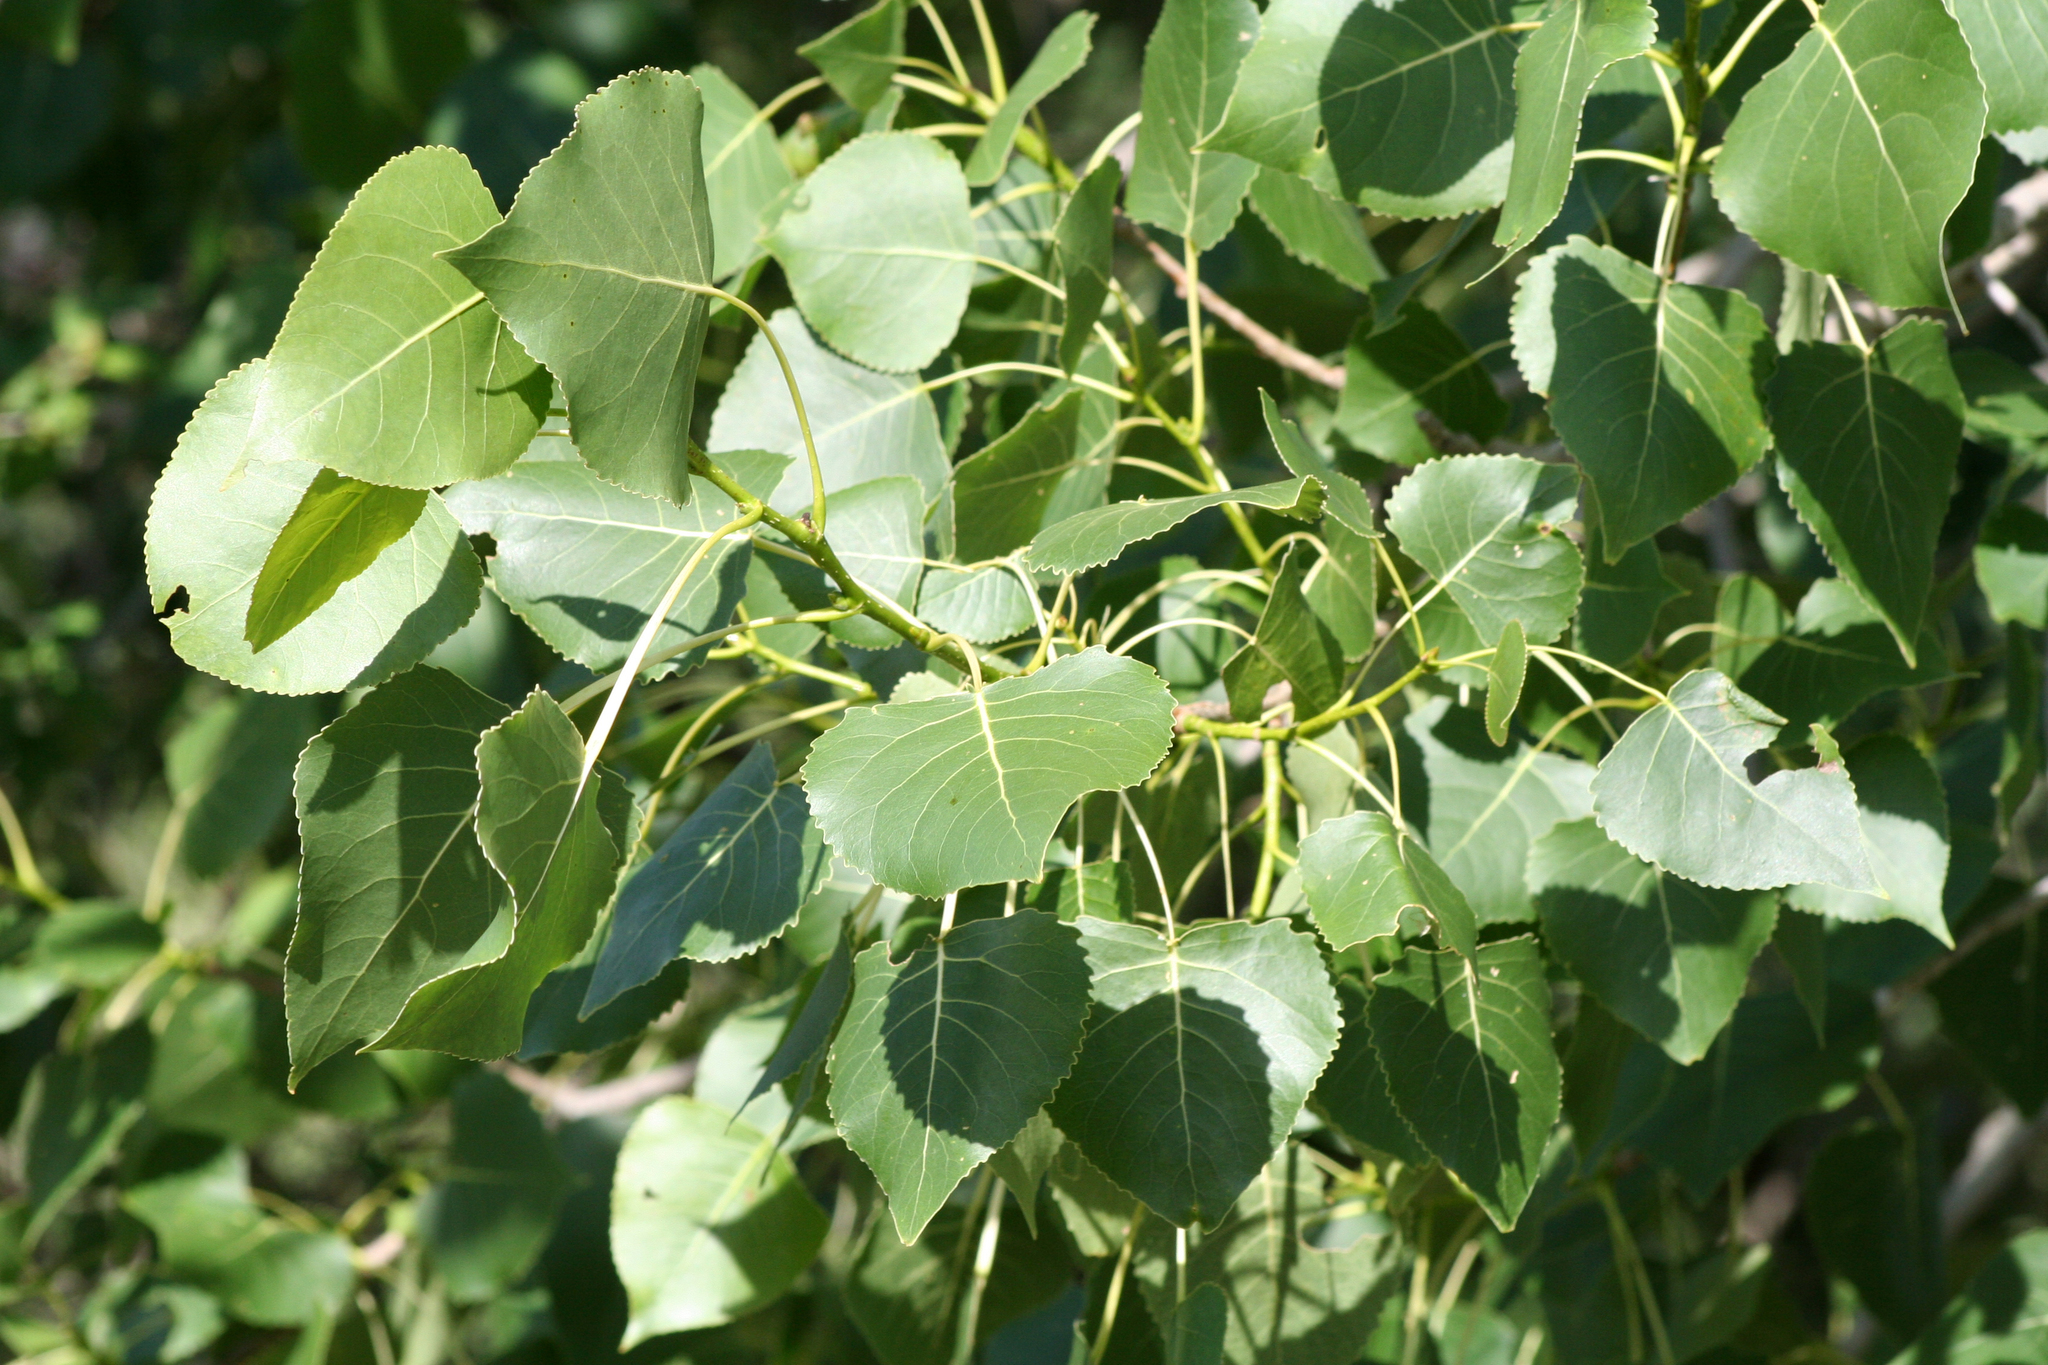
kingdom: Plantae
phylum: Tracheophyta
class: Magnoliopsida
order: Malpighiales
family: Salicaceae
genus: Populus
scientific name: Populus deltoides
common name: Eastern cottonwood
